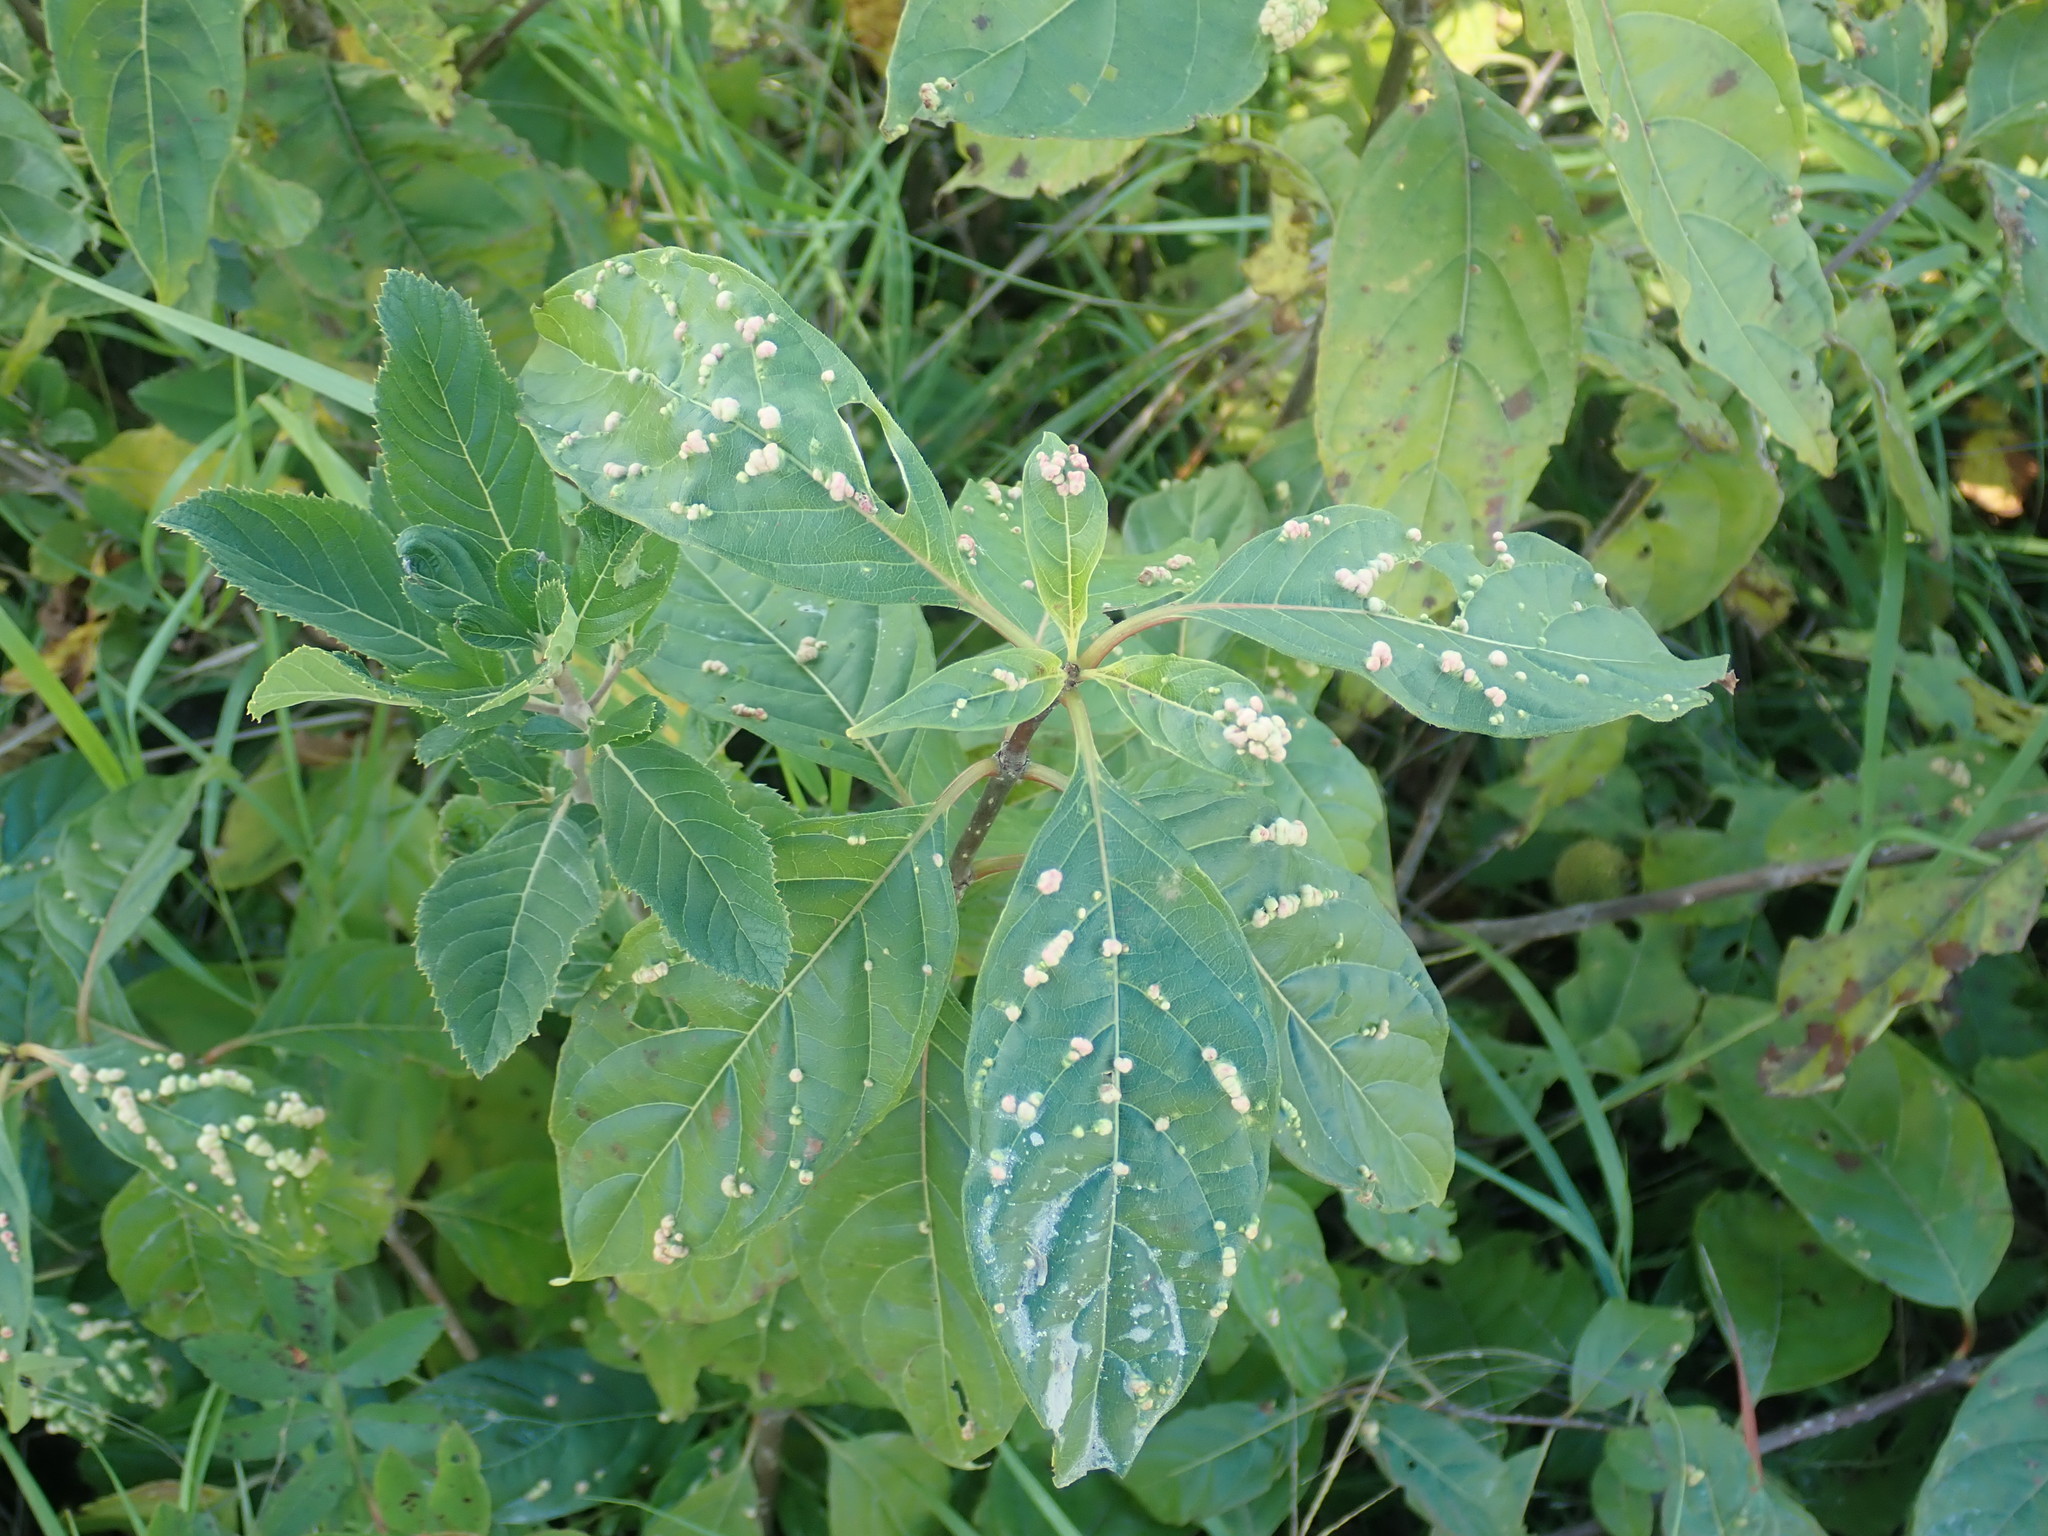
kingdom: Animalia
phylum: Arthropoda
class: Arachnida
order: Trombidiformes
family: Eriophyidae
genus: Aceria
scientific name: Aceria
